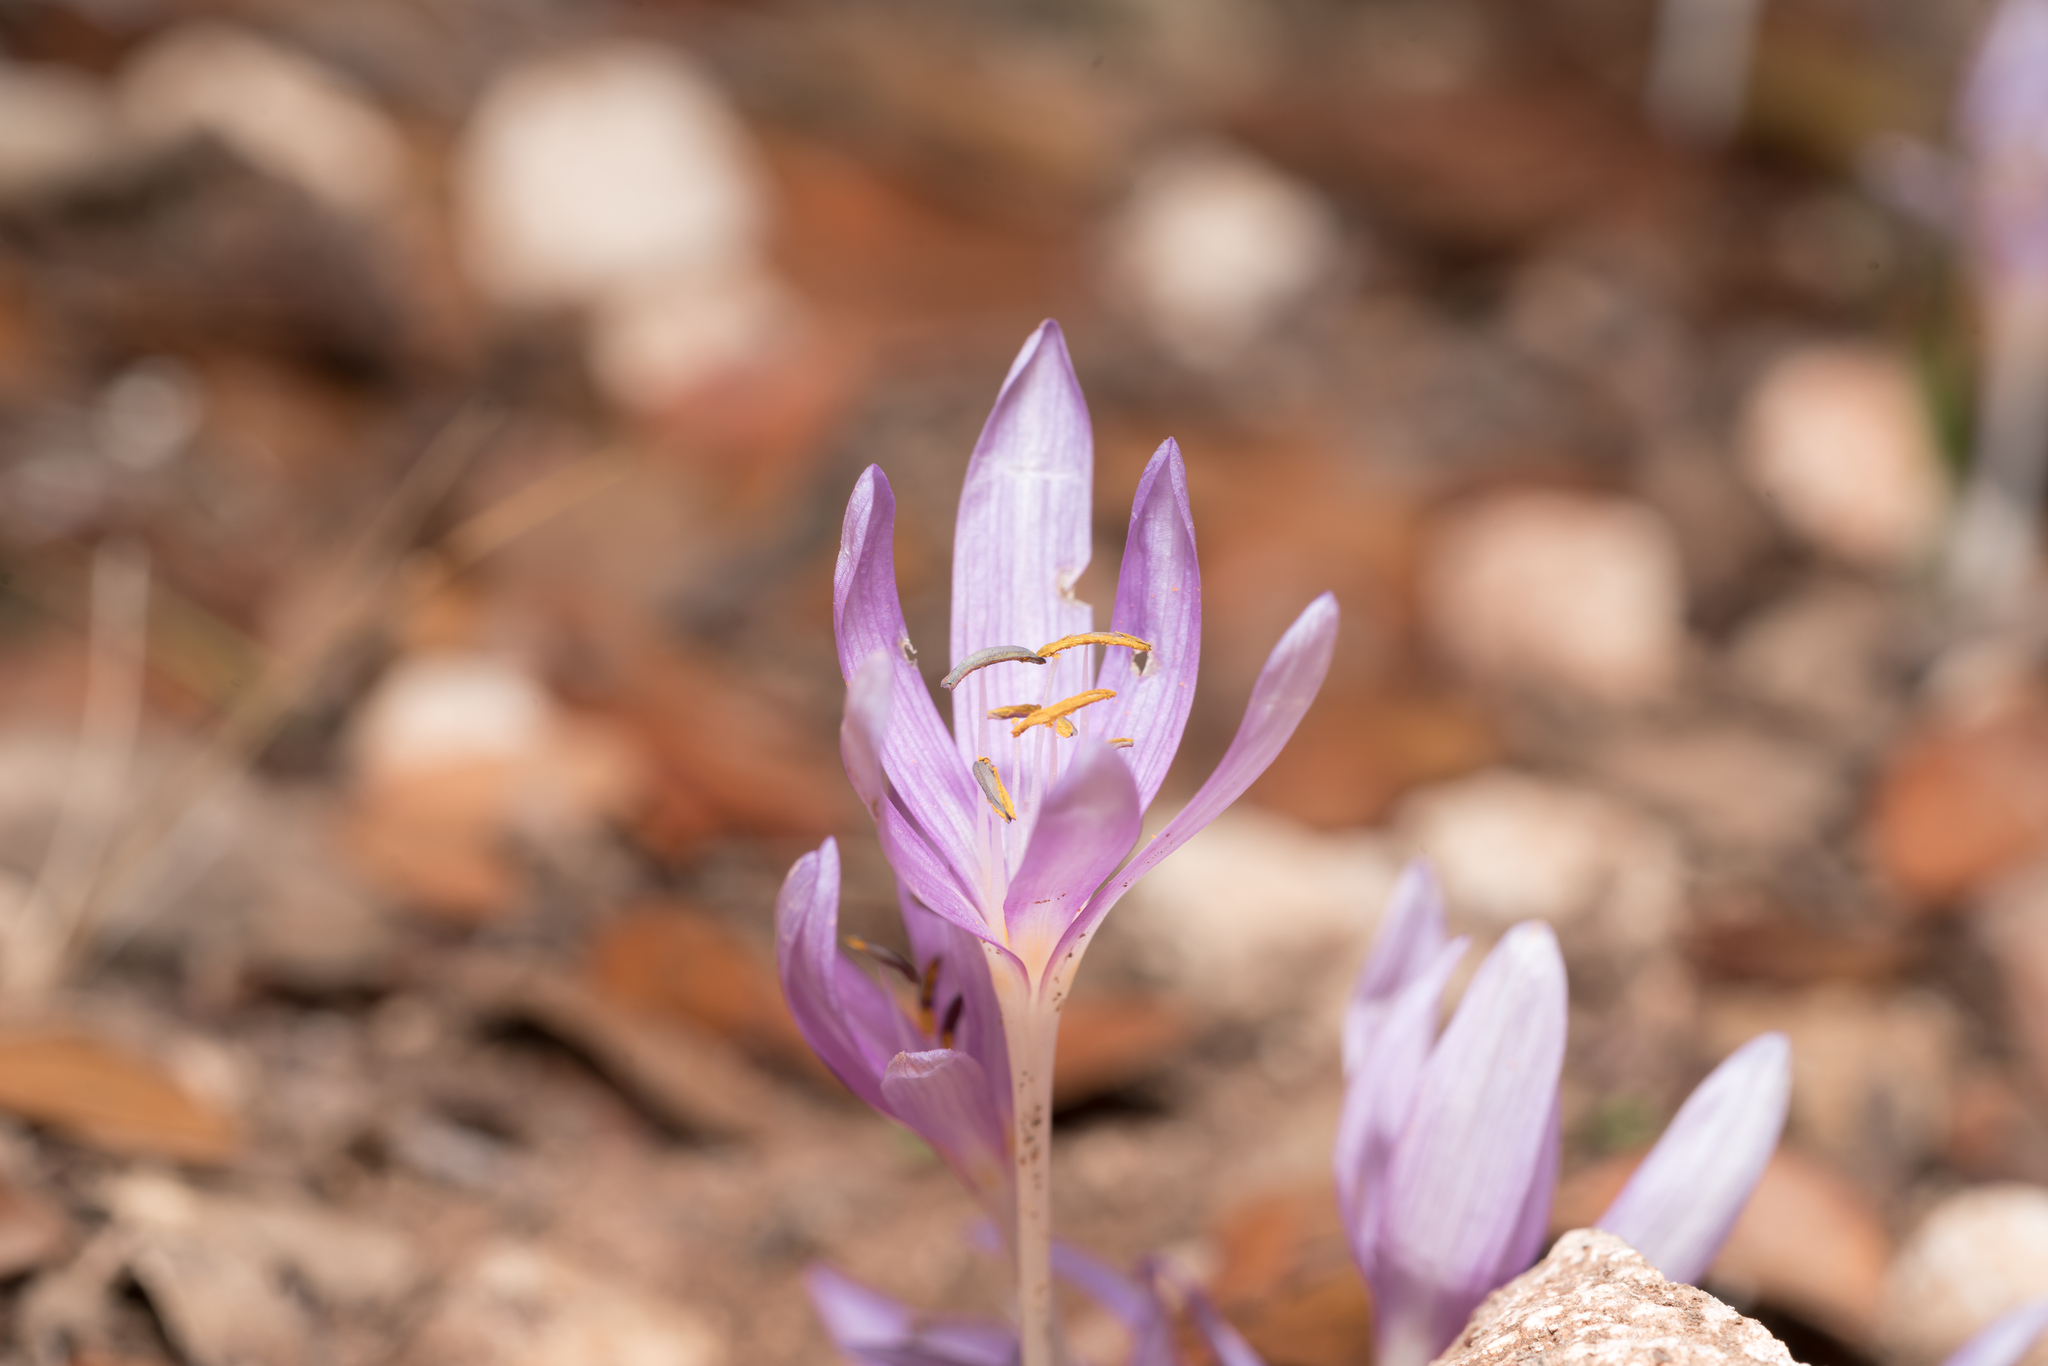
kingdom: Plantae
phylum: Tracheophyta
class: Liliopsida
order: Liliales
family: Colchicaceae
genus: Colchicum
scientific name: Colchicum pusillum
